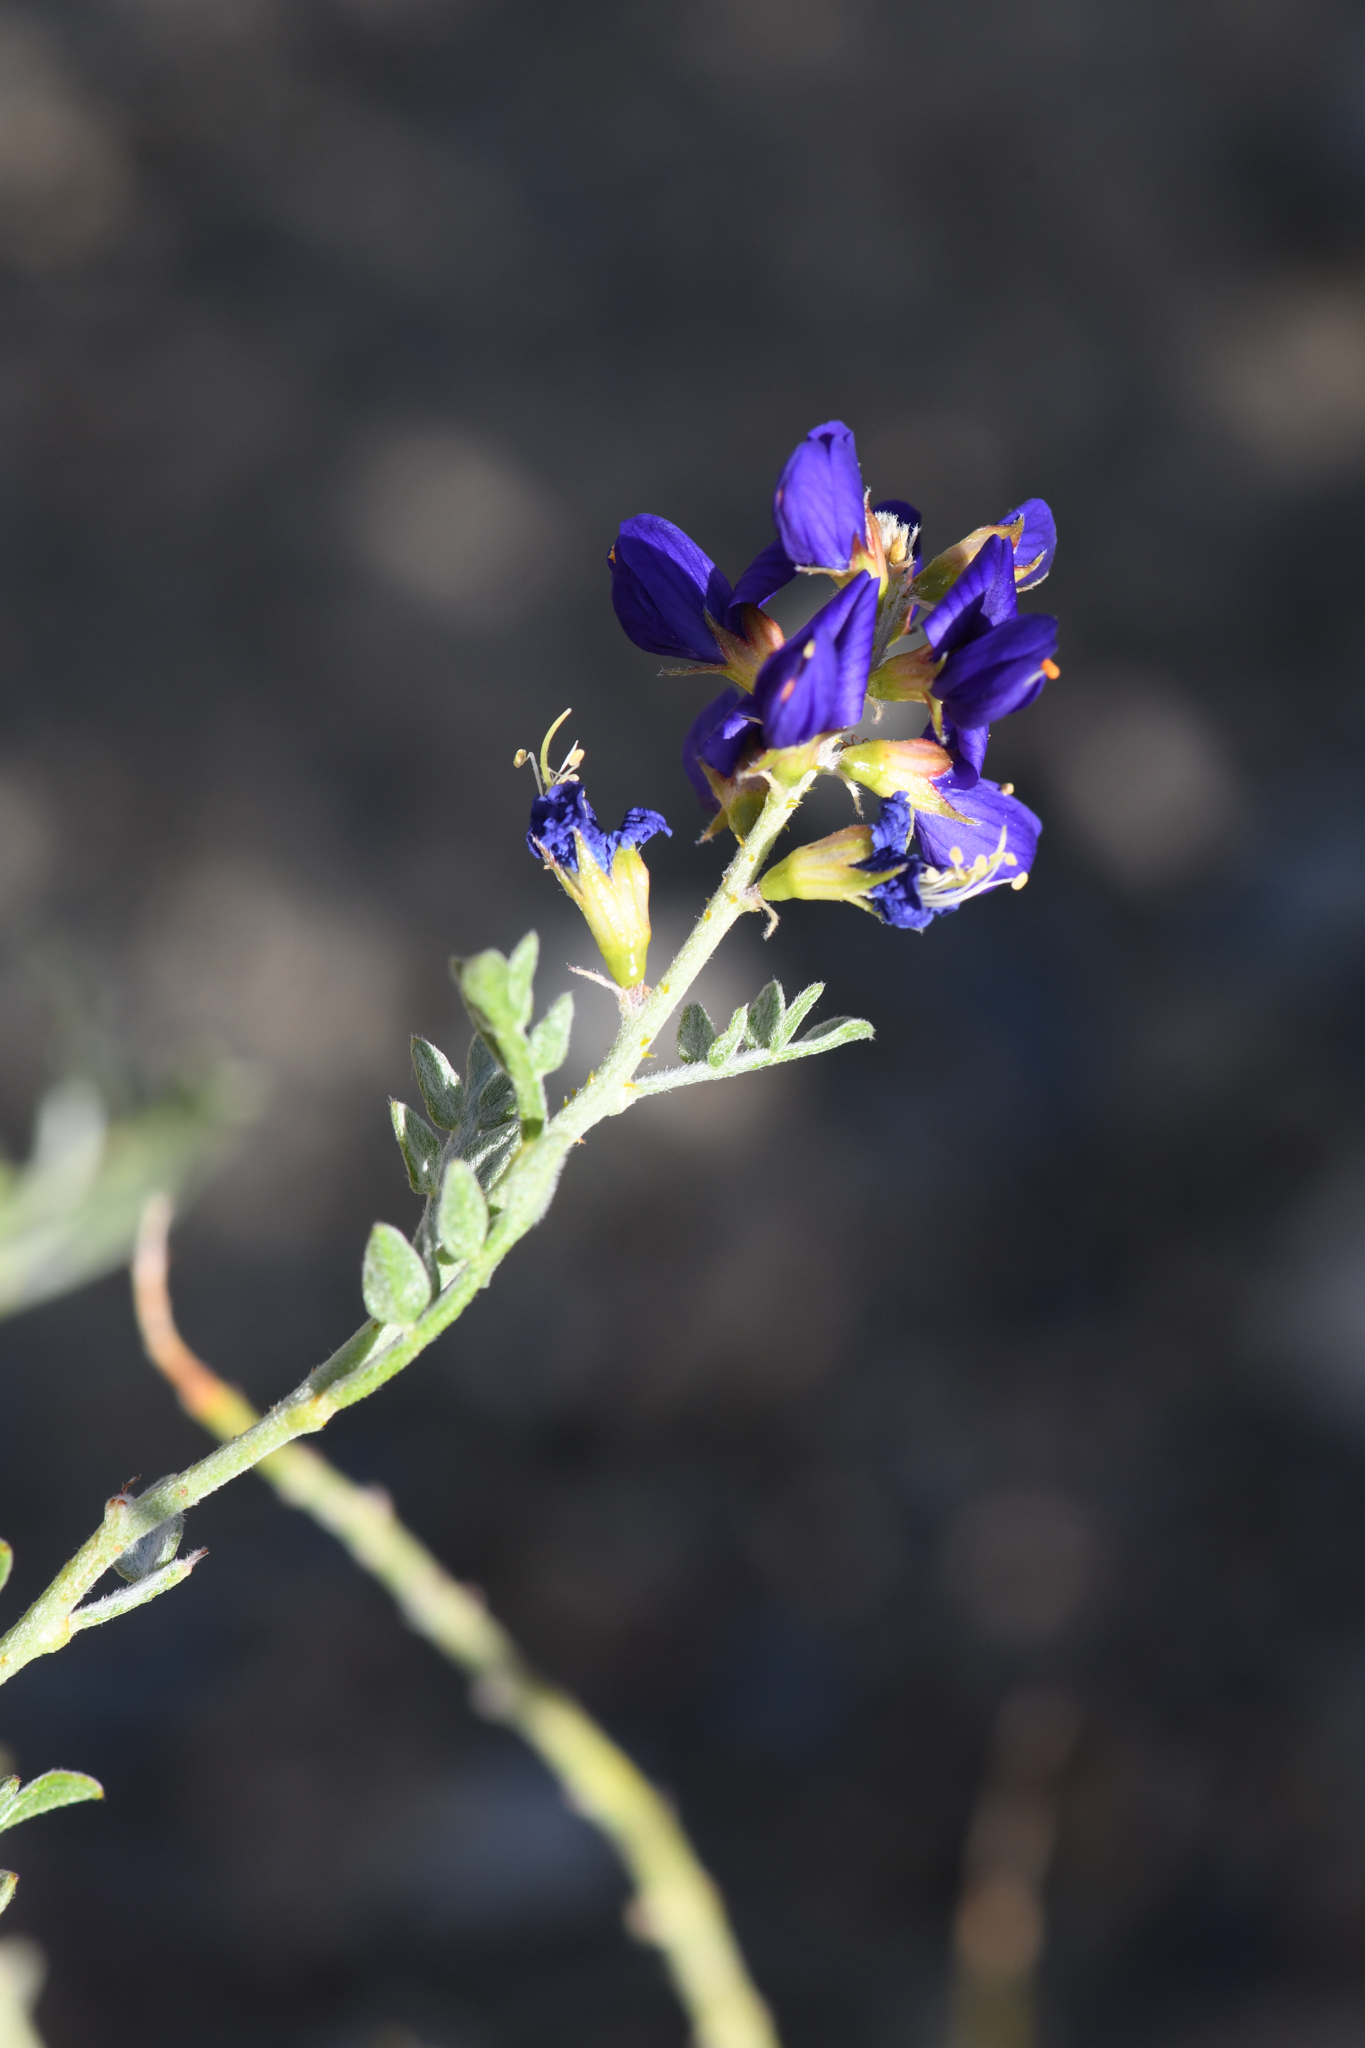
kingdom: Plantae
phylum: Tracheophyta
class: Magnoliopsida
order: Fabales
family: Fabaceae
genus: Psorothamnus
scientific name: Psorothamnus arborescens
